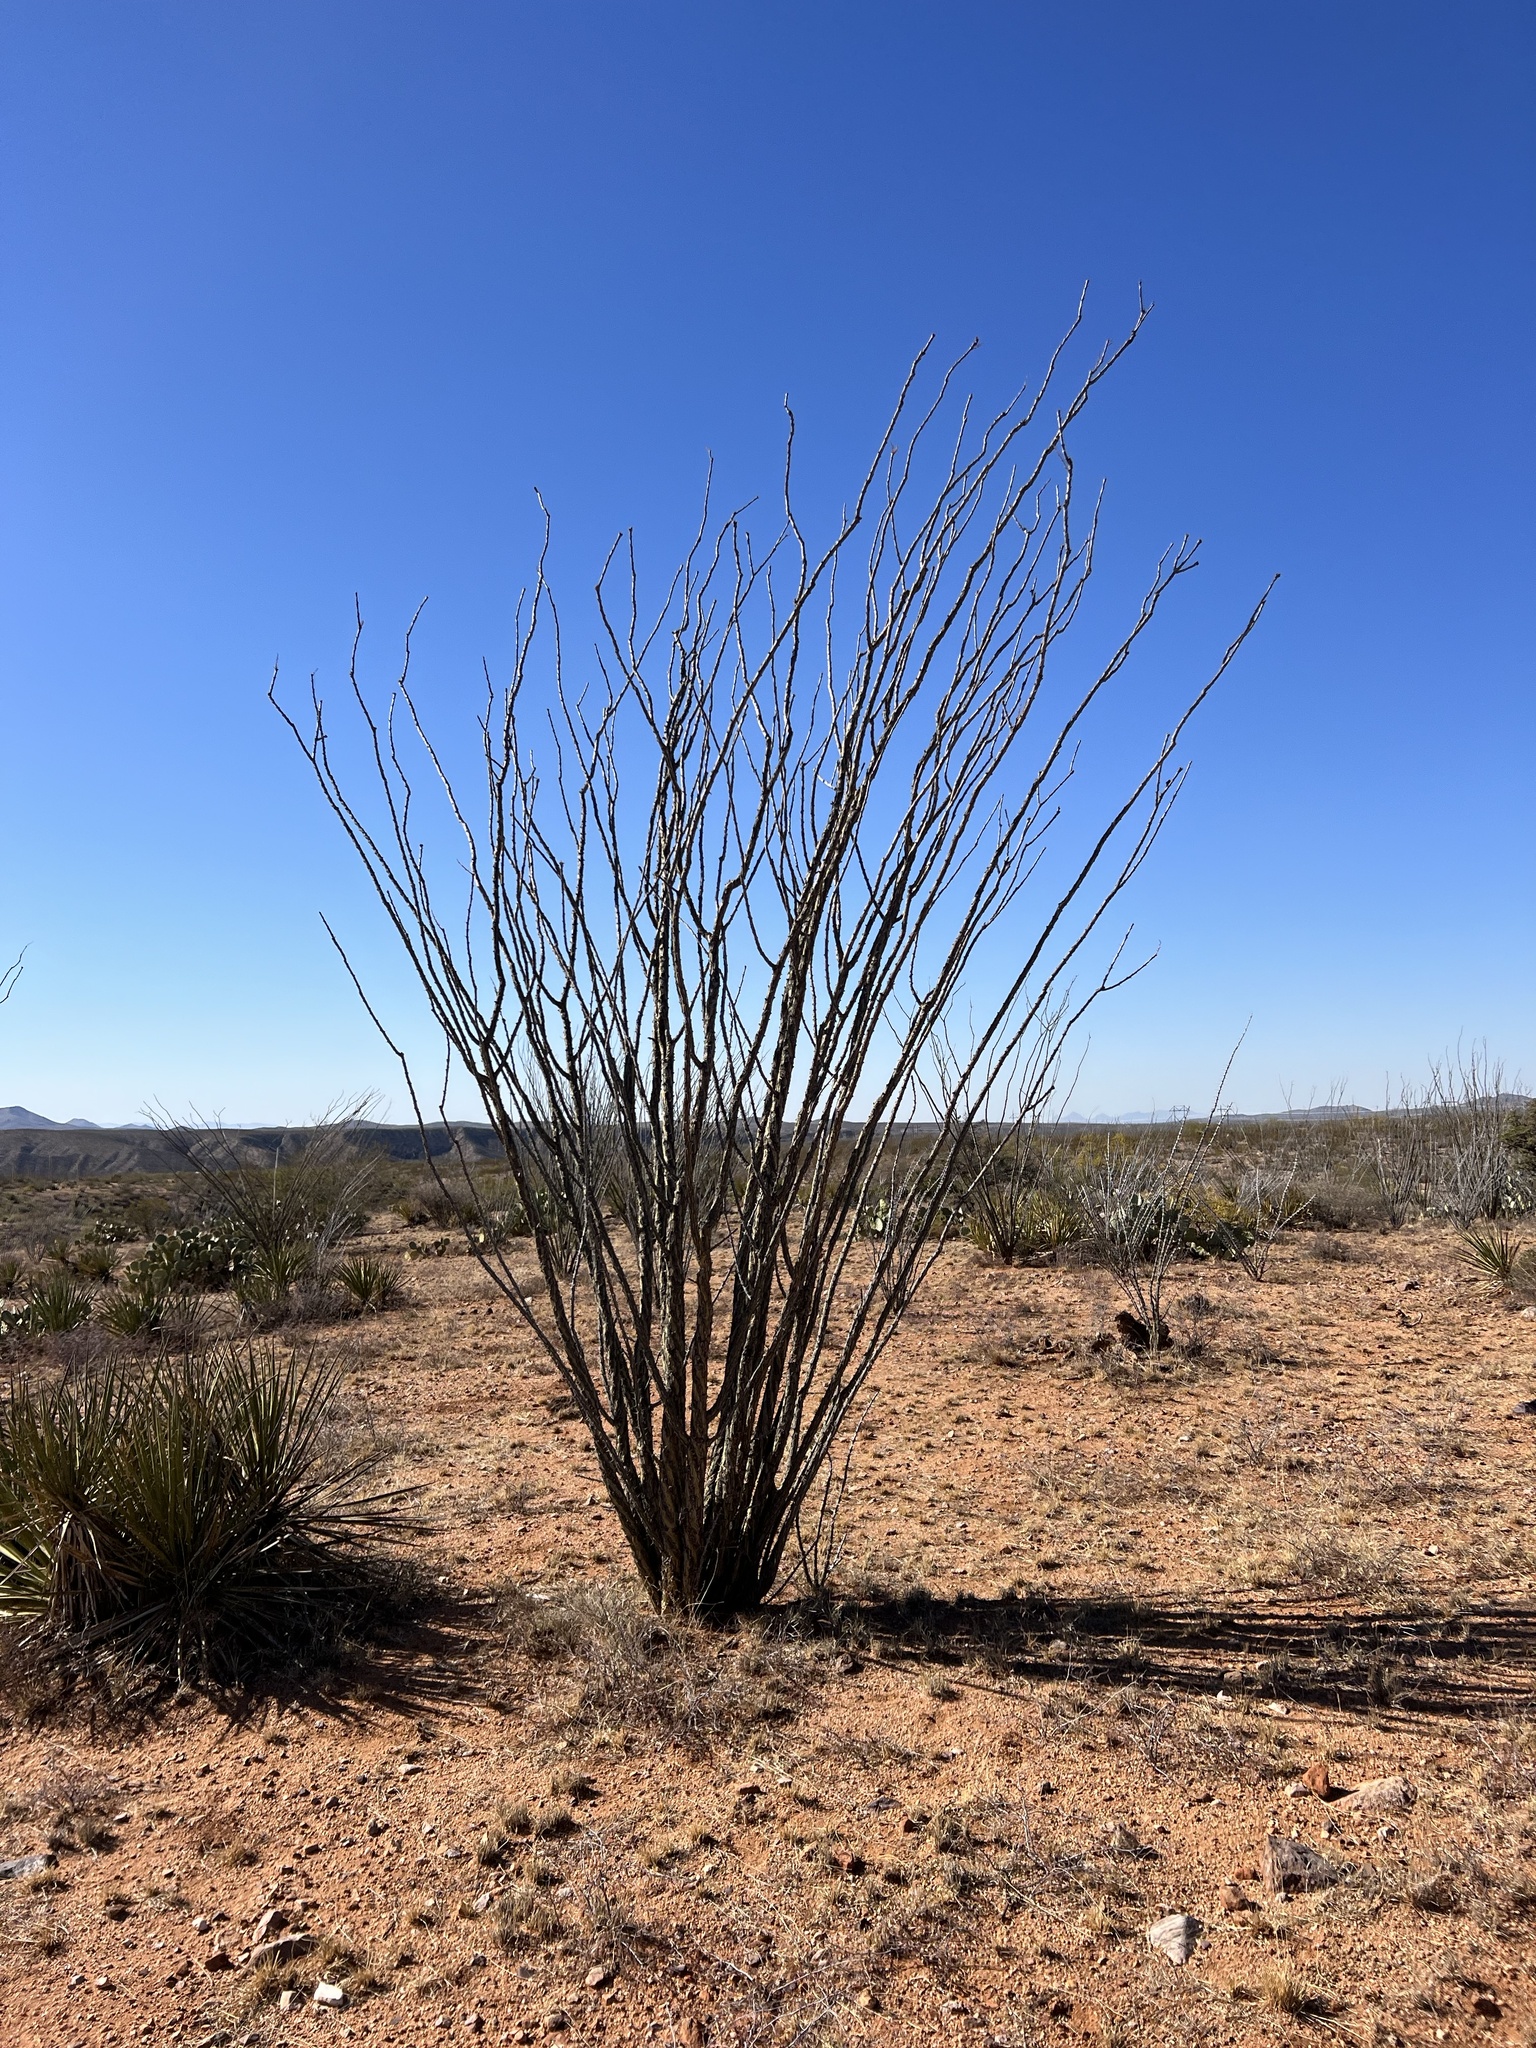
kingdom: Plantae
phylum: Tracheophyta
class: Magnoliopsida
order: Ericales
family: Fouquieriaceae
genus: Fouquieria
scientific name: Fouquieria splendens
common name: Vine-cactus
